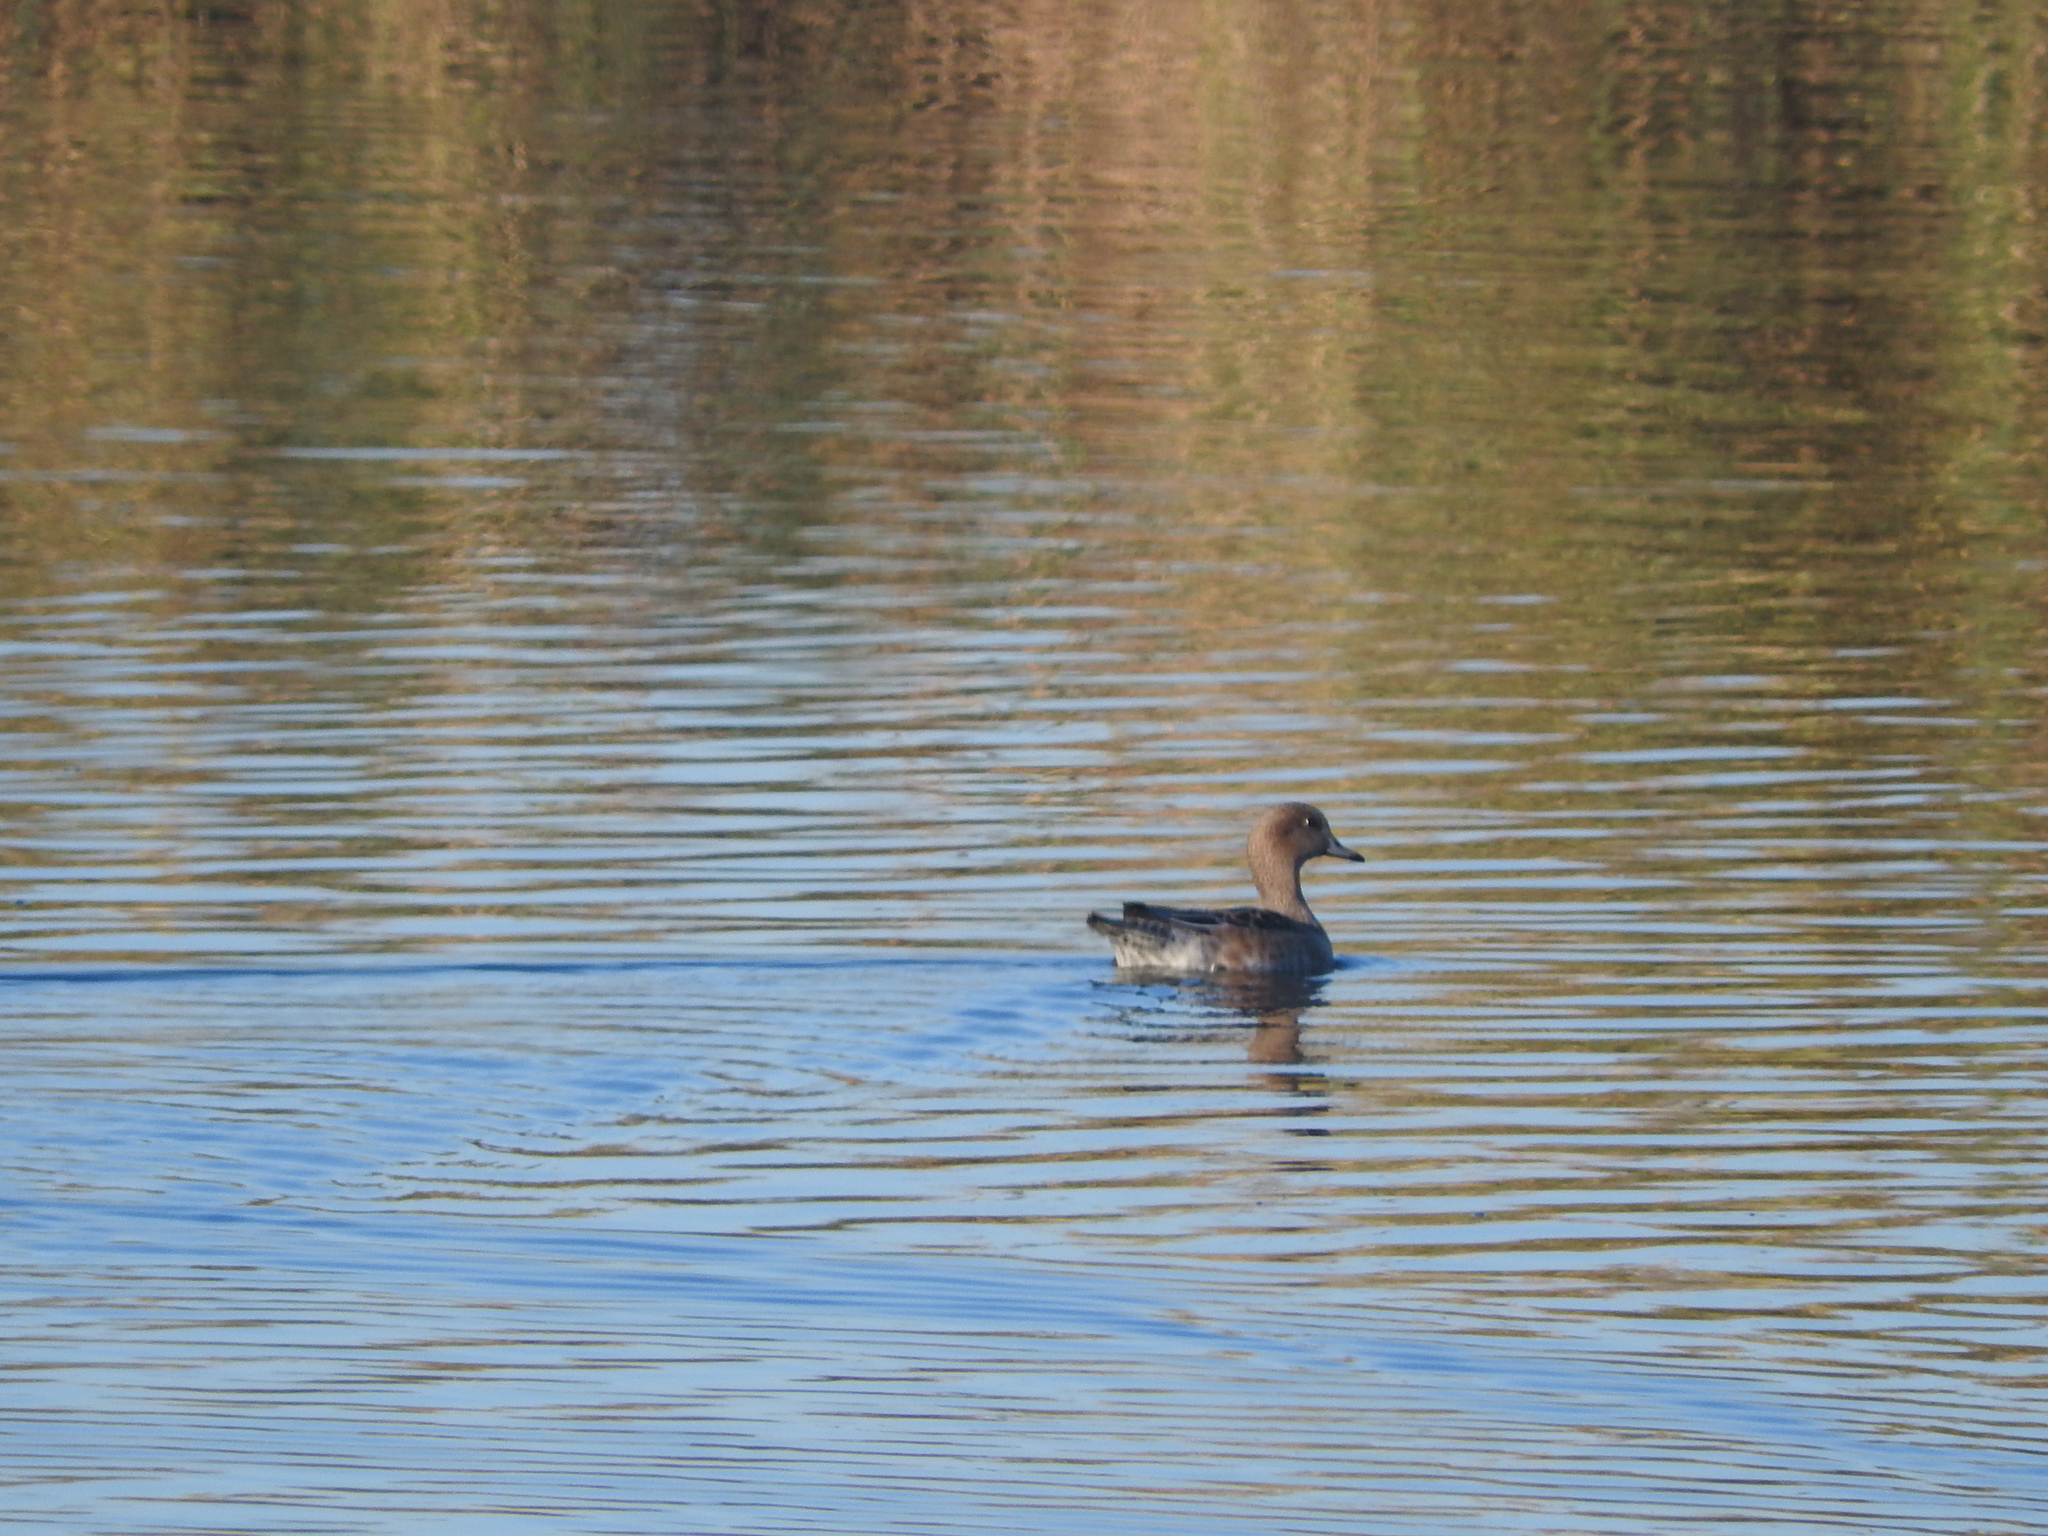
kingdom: Animalia
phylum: Chordata
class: Aves
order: Anseriformes
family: Anatidae
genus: Mareca
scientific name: Mareca penelope
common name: Eurasian wigeon
